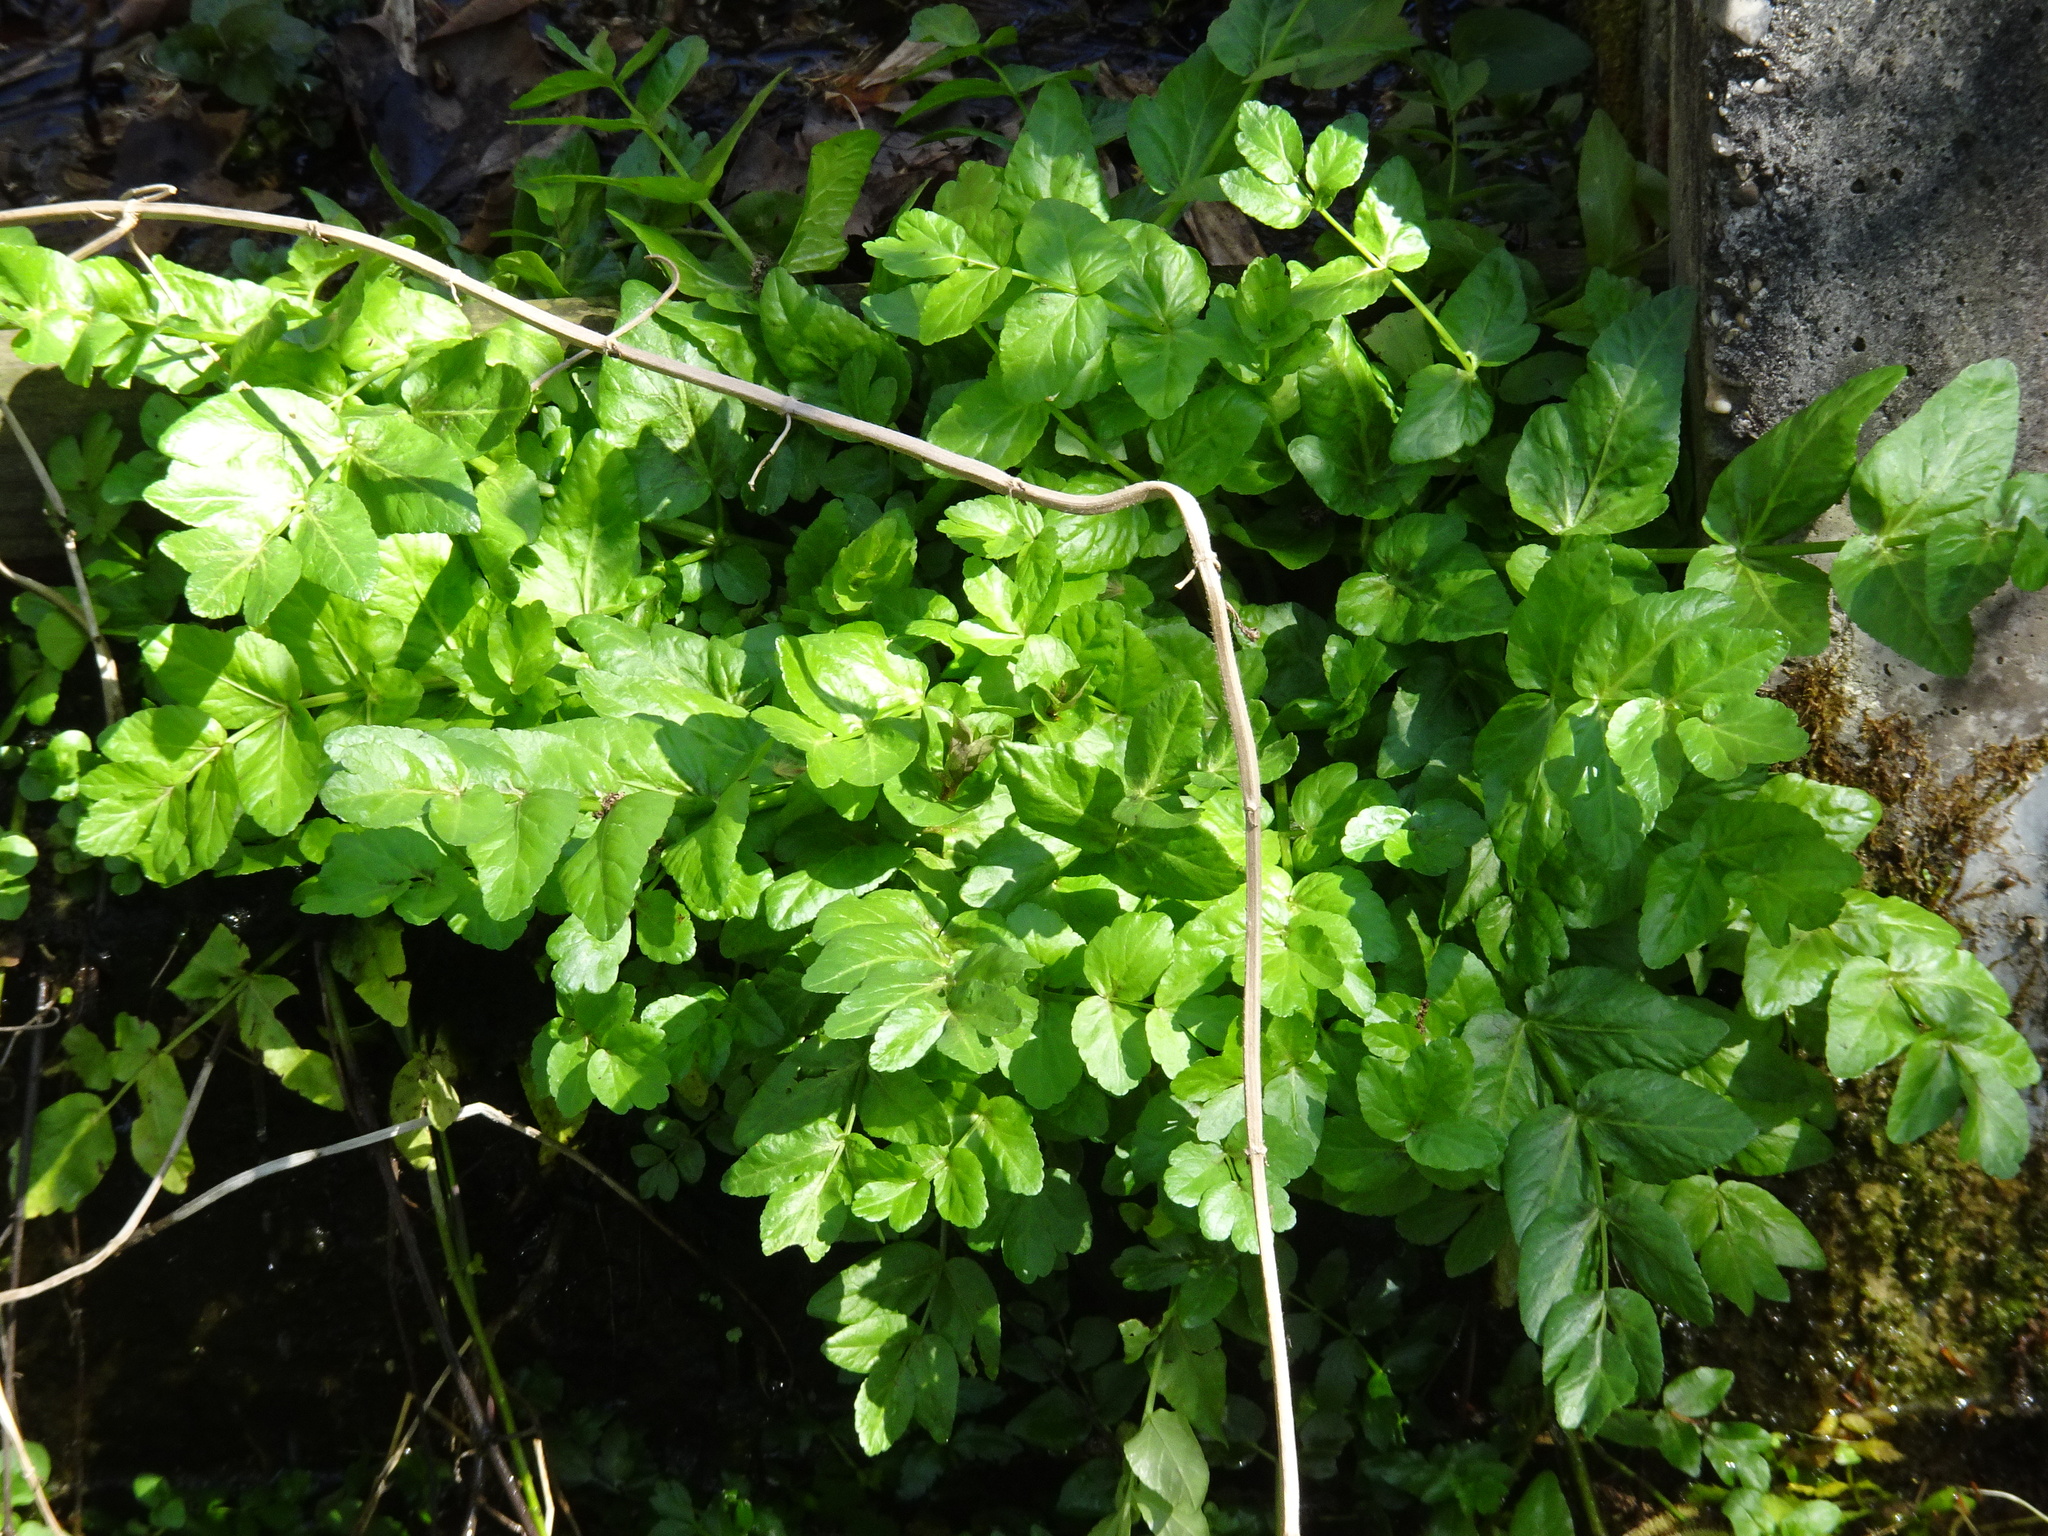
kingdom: Plantae
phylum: Tracheophyta
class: Magnoliopsida
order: Apiales
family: Apiaceae
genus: Helosciadium
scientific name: Helosciadium nodiflorum
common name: Fool's-watercress
